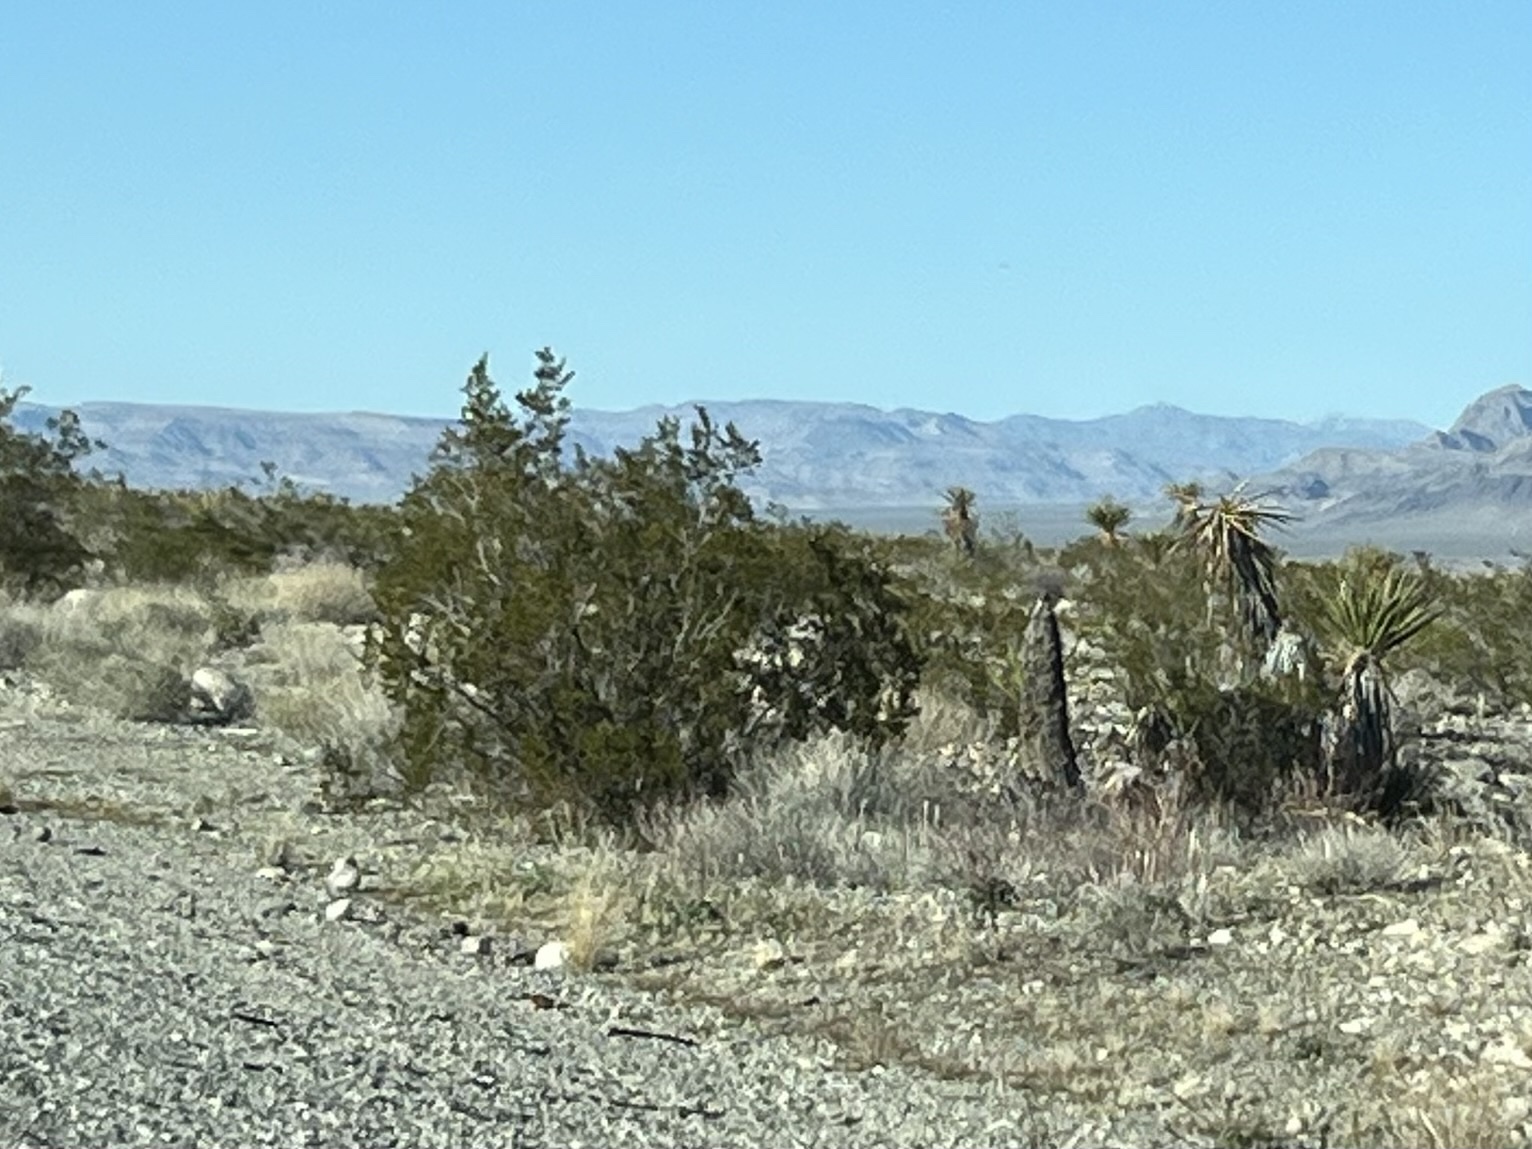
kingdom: Plantae
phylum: Tracheophyta
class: Magnoliopsida
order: Zygophyllales
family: Zygophyllaceae
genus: Larrea
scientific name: Larrea tridentata
